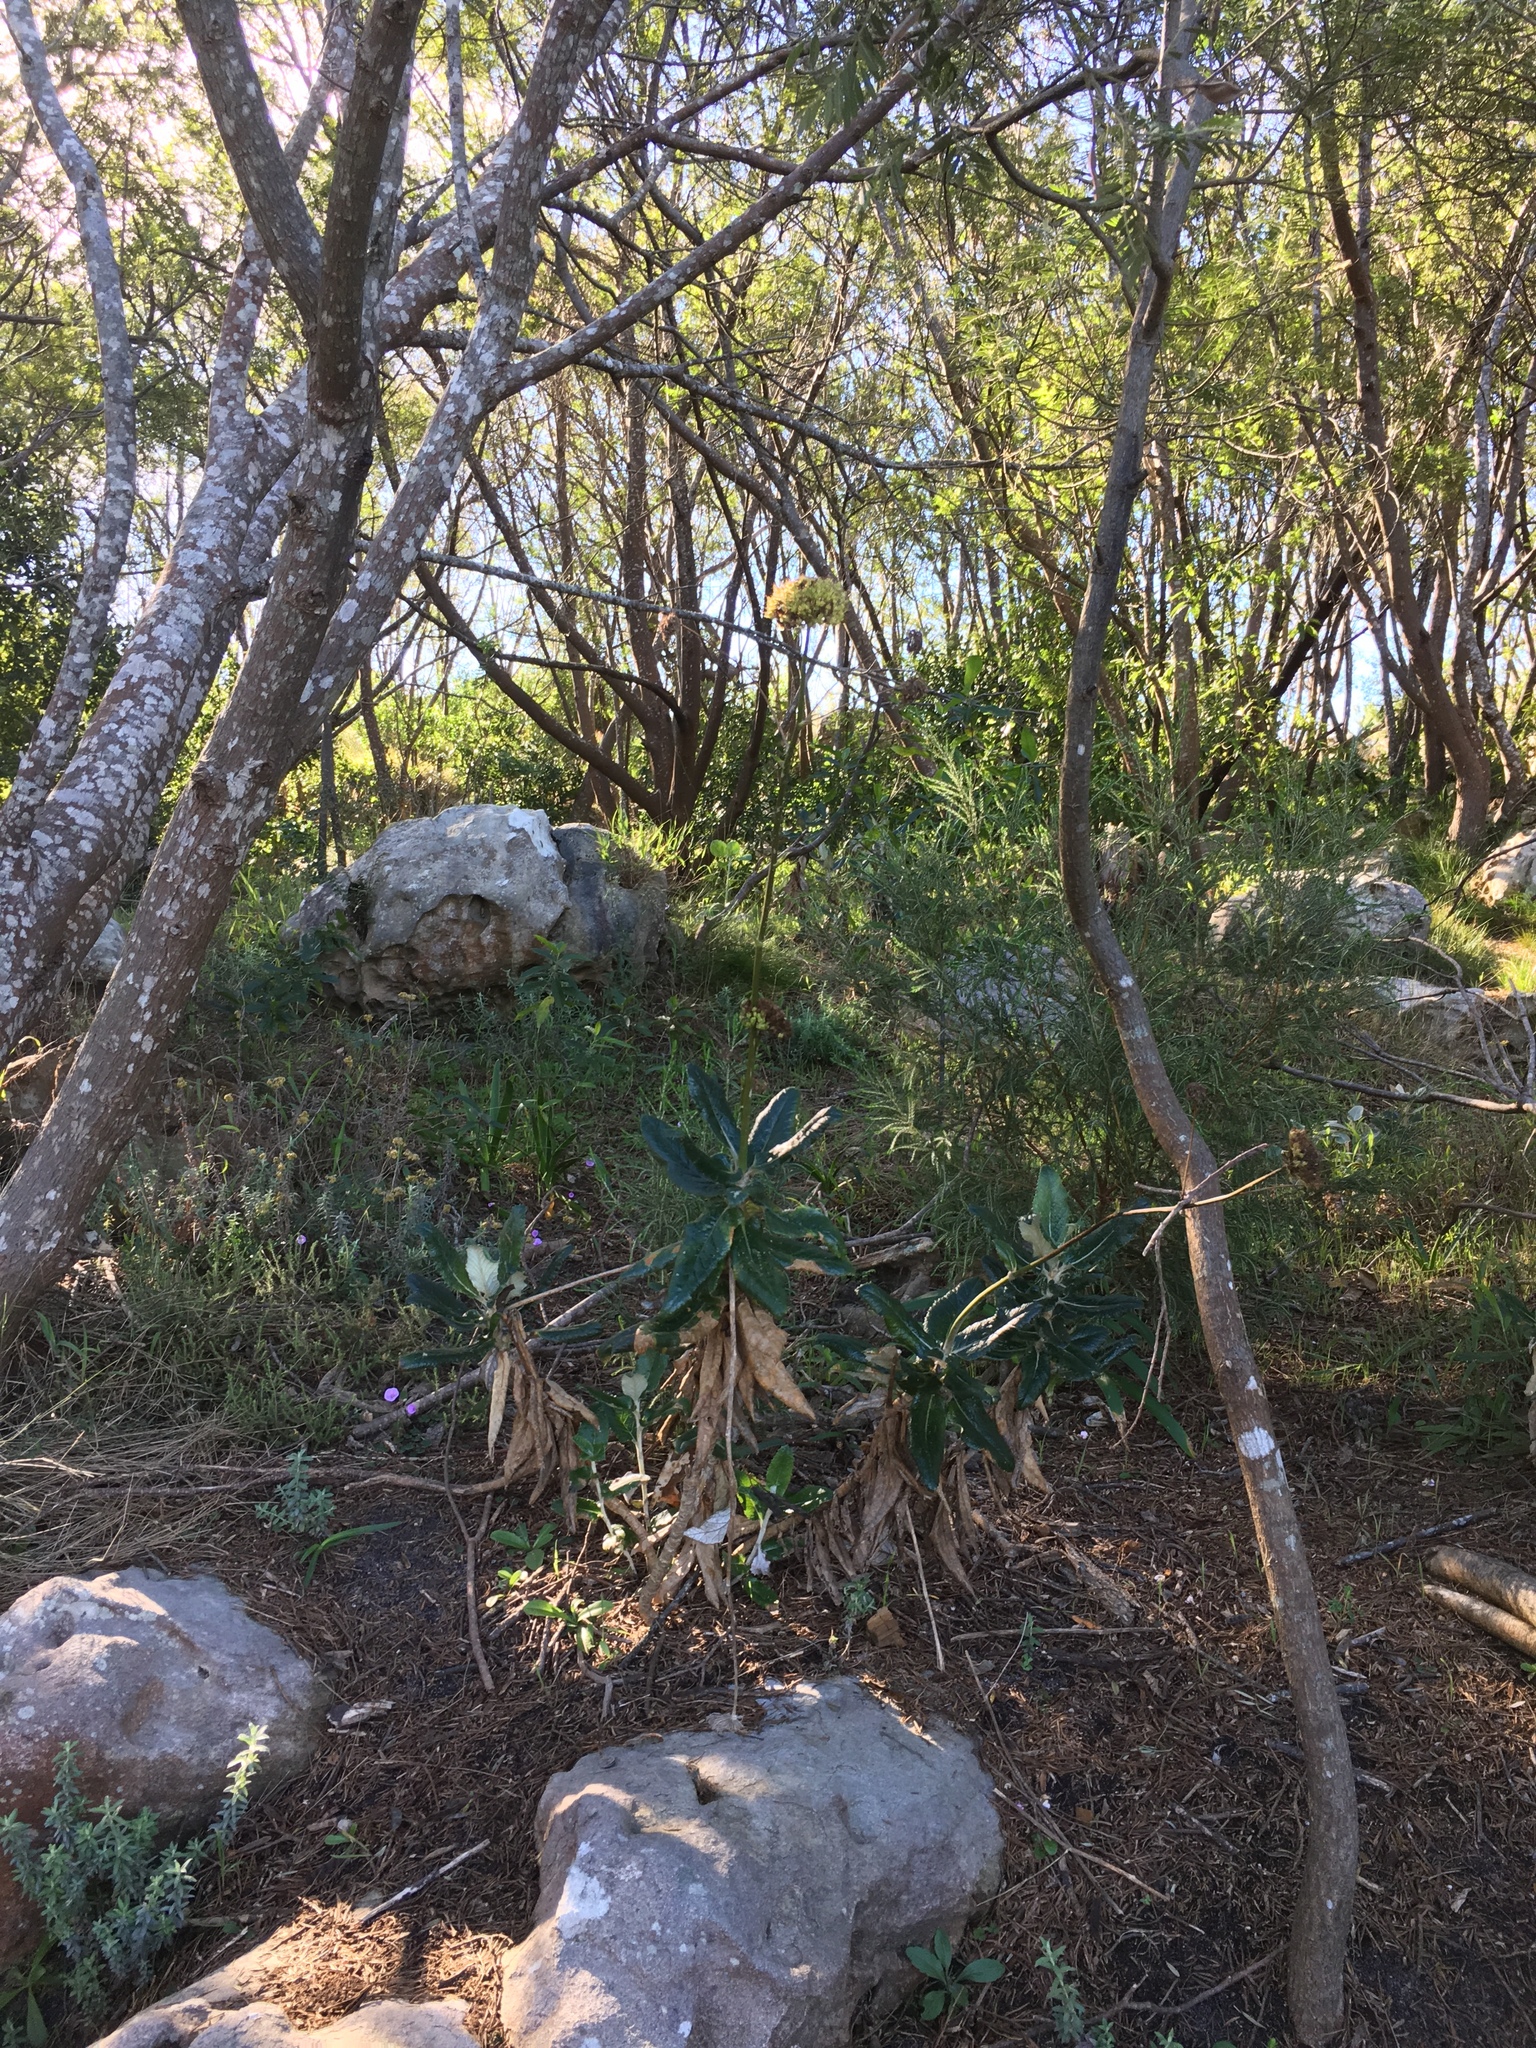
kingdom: Plantae
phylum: Tracheophyta
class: Magnoliopsida
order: Apiales
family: Apiaceae
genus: Hermas
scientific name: Hermas villosa
